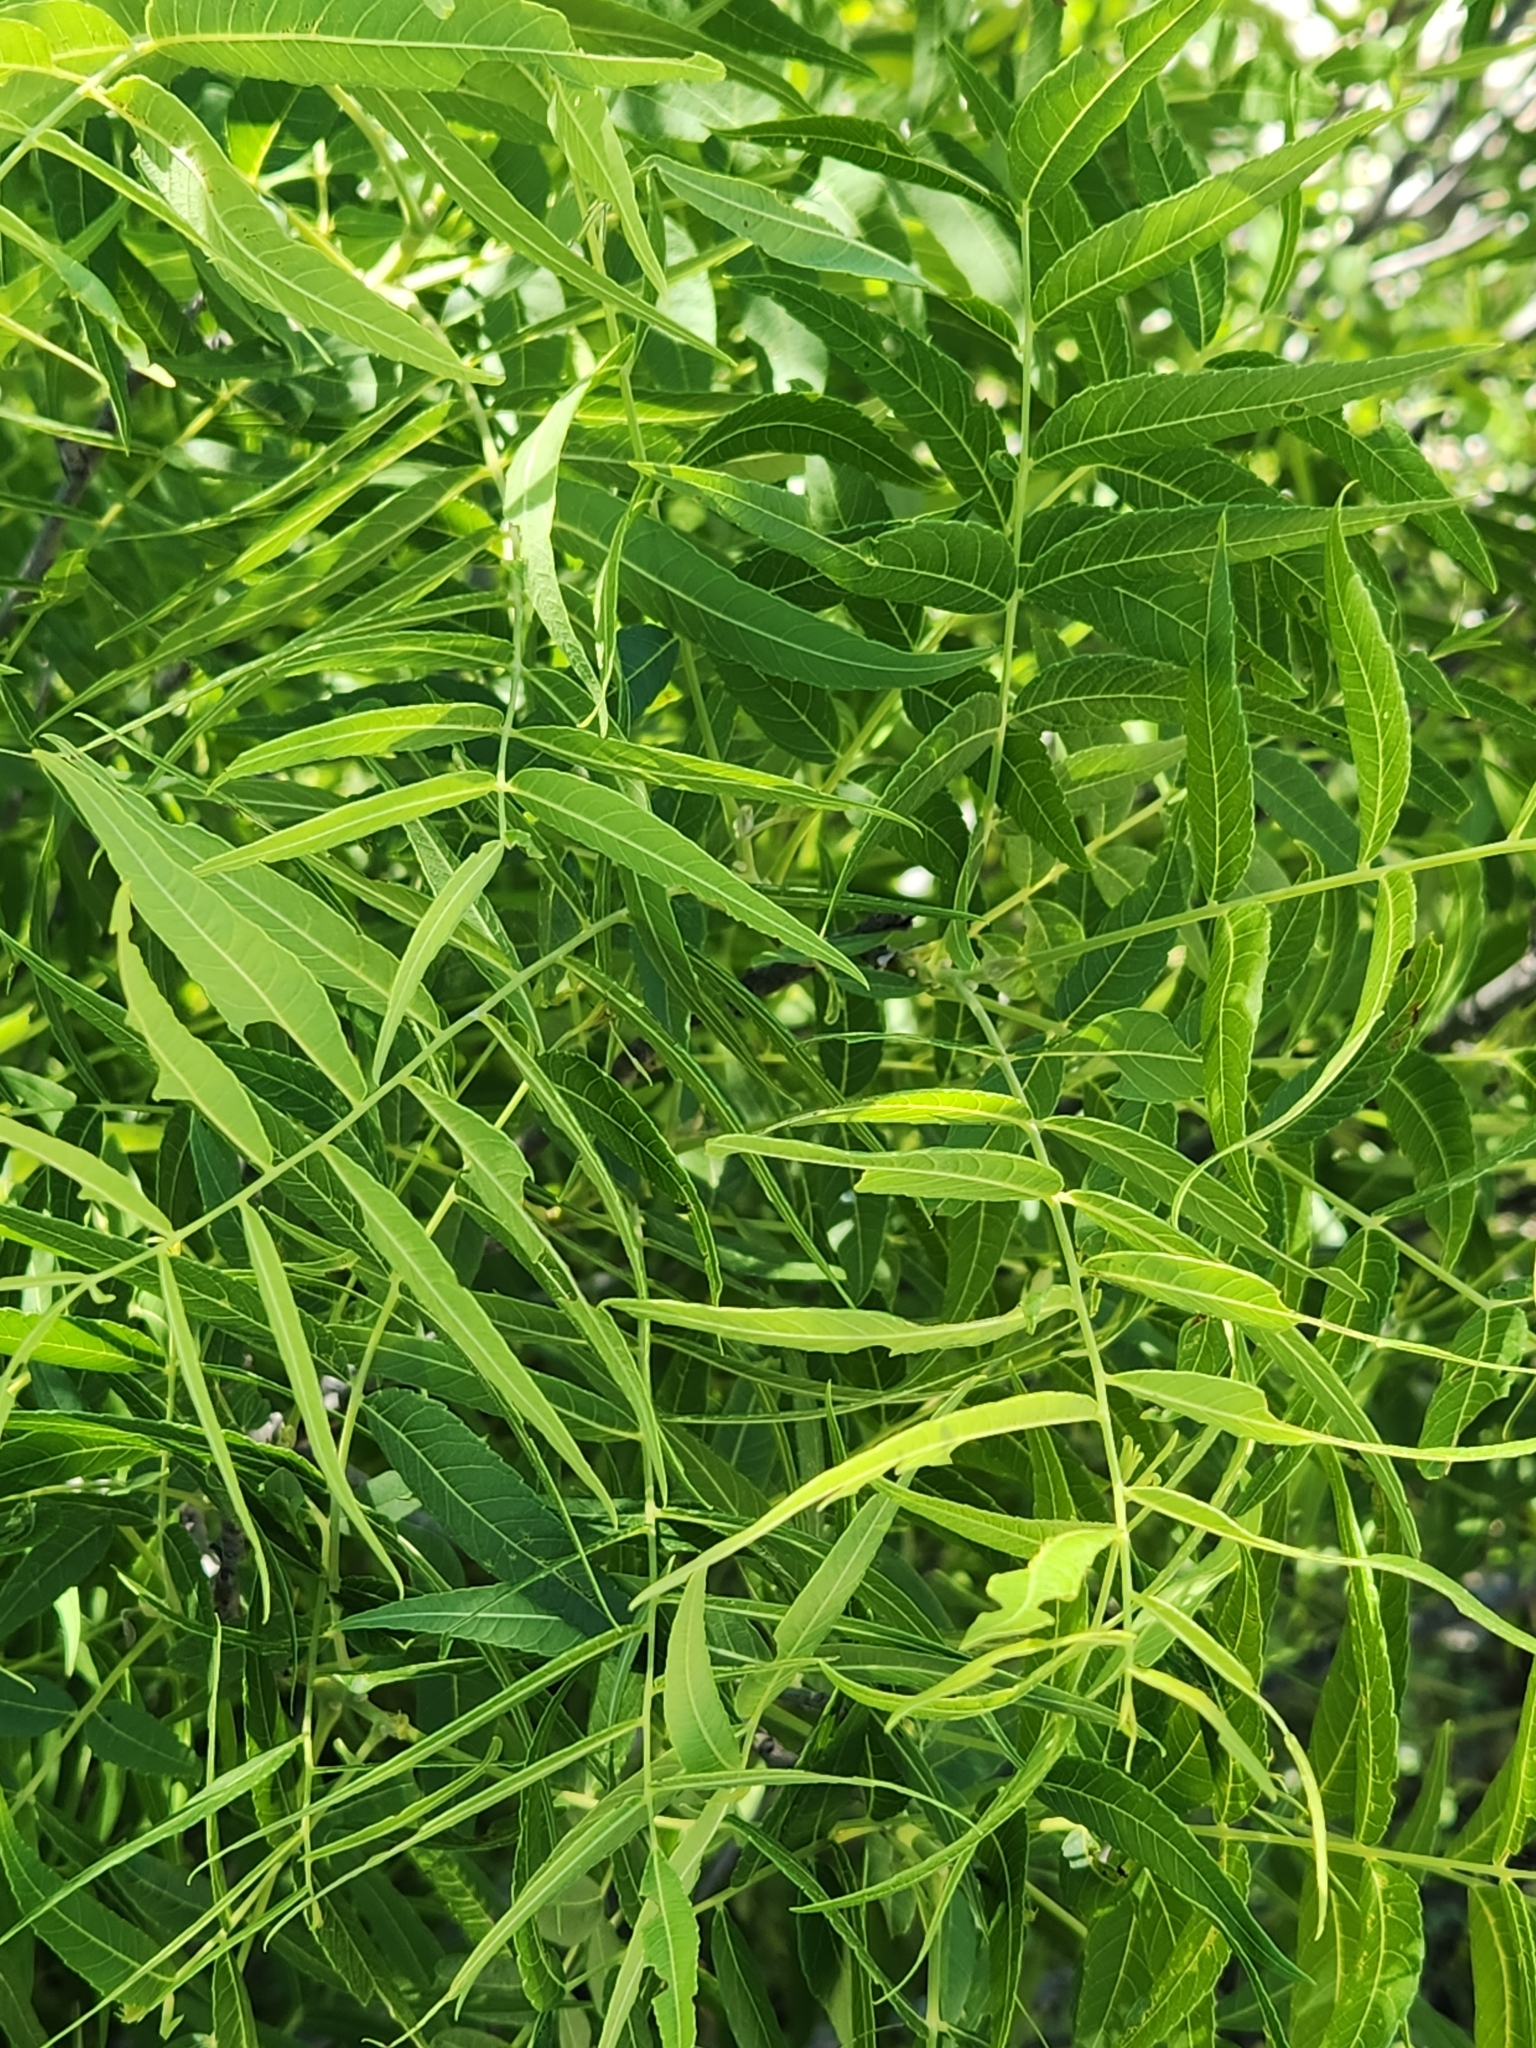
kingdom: Plantae
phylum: Tracheophyta
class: Magnoliopsida
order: Fagales
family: Juglandaceae
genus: Juglans
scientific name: Juglans microcarpa
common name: Texas walnut
